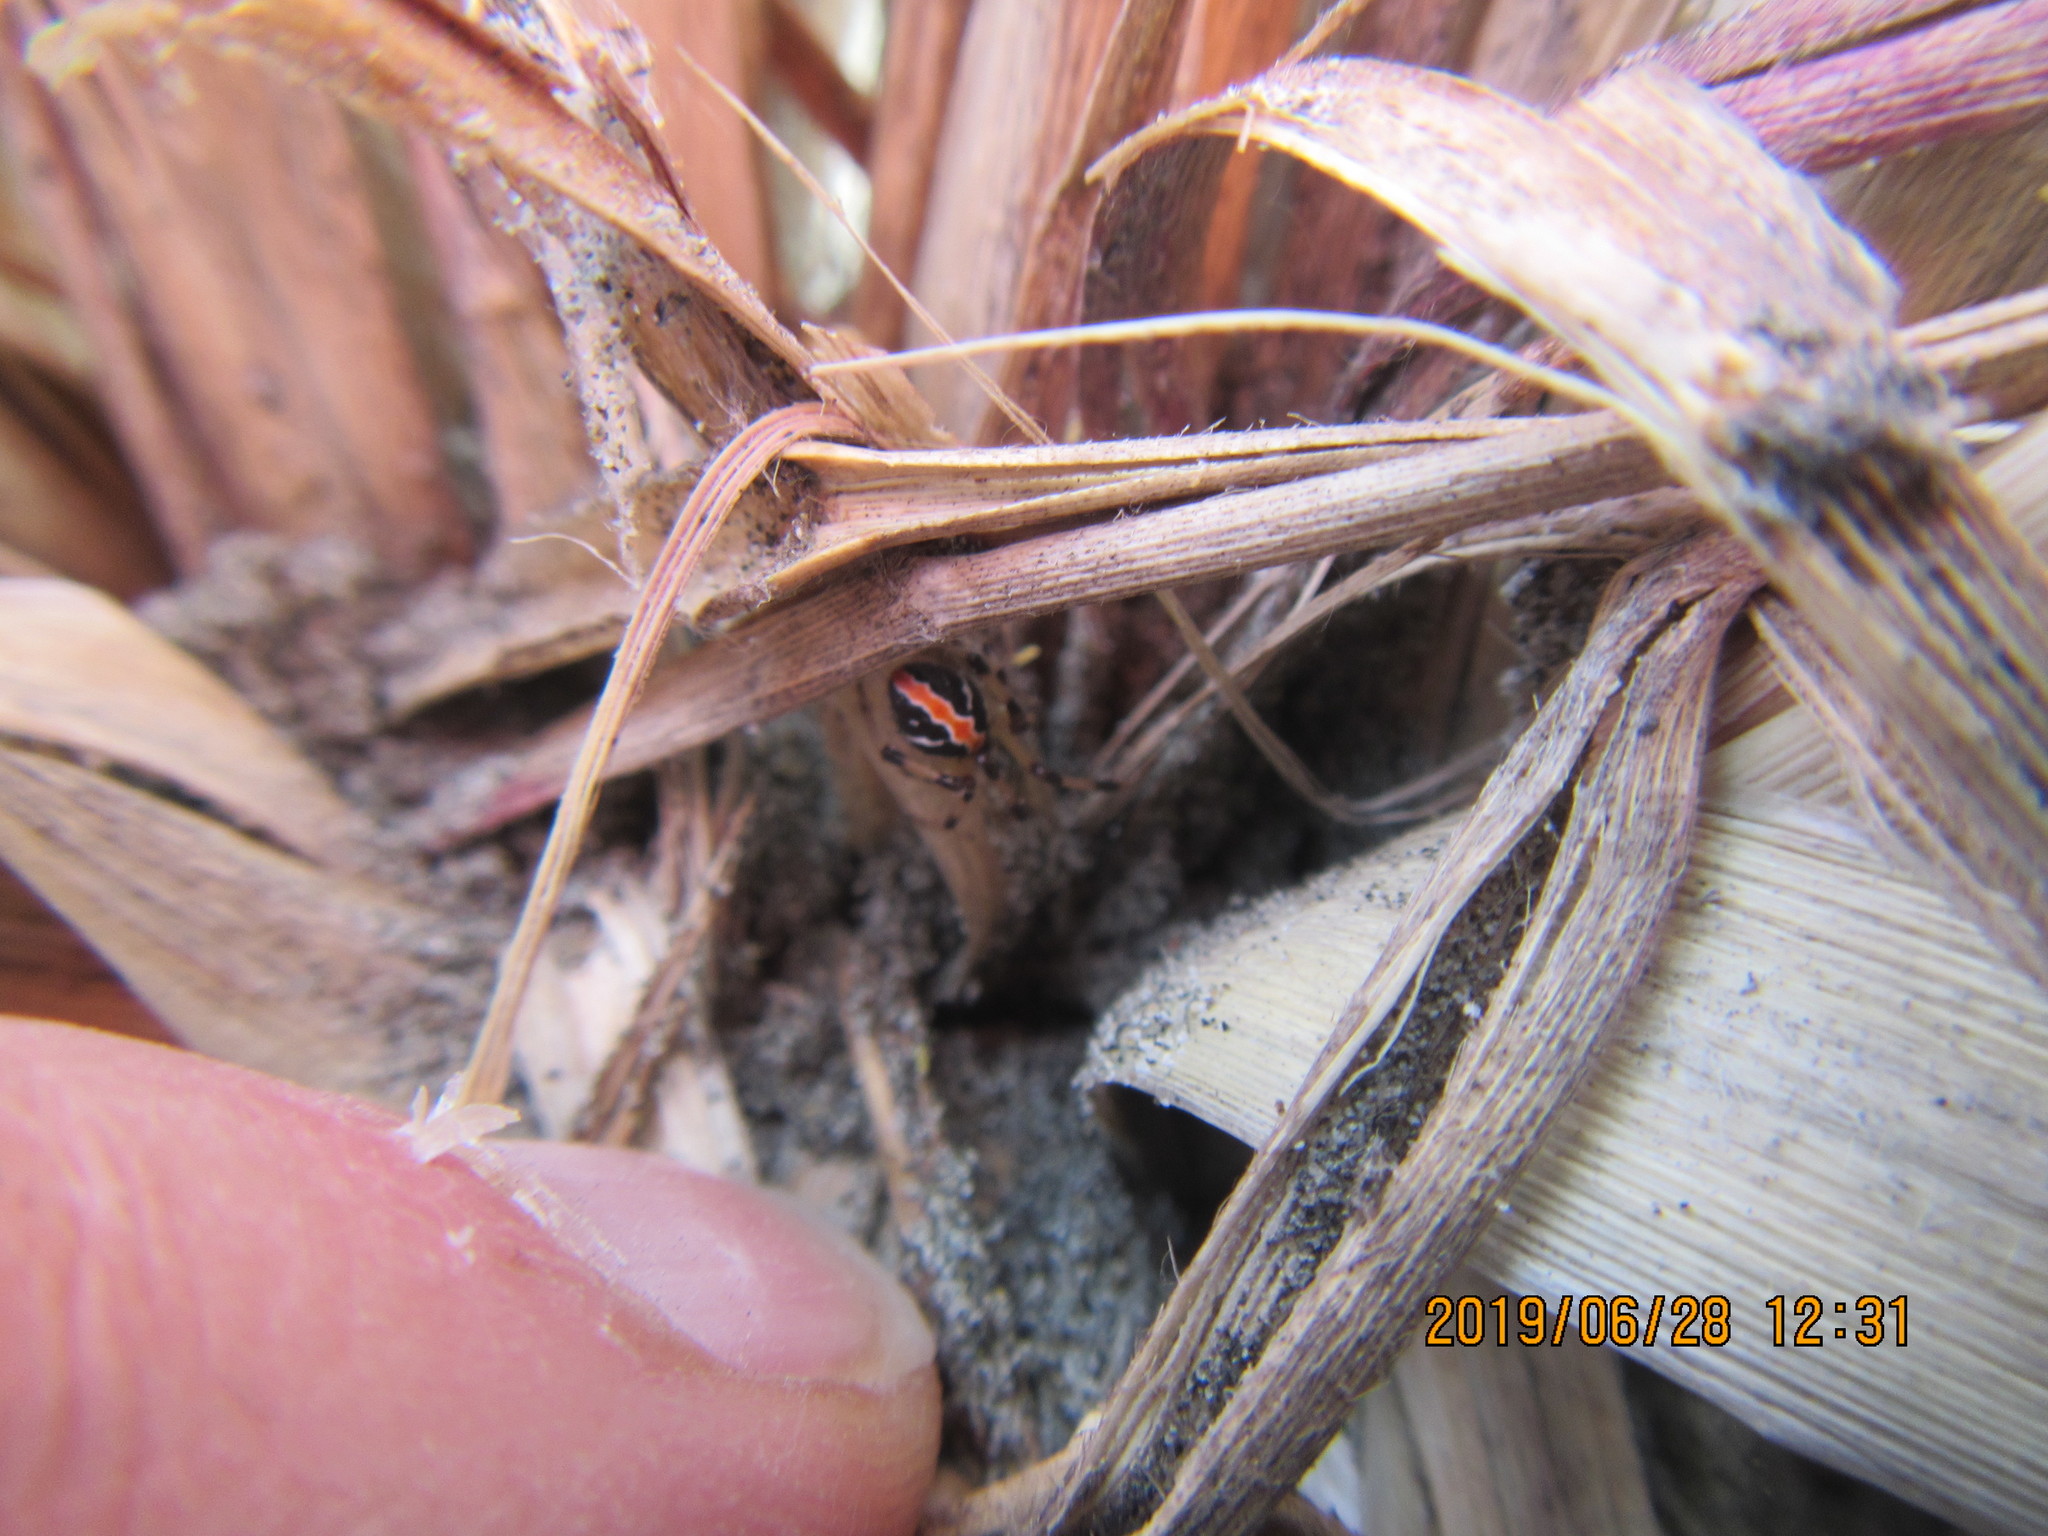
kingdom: Animalia
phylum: Arthropoda
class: Arachnida
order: Araneae
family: Theridiidae
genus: Latrodectus
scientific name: Latrodectus katipo
